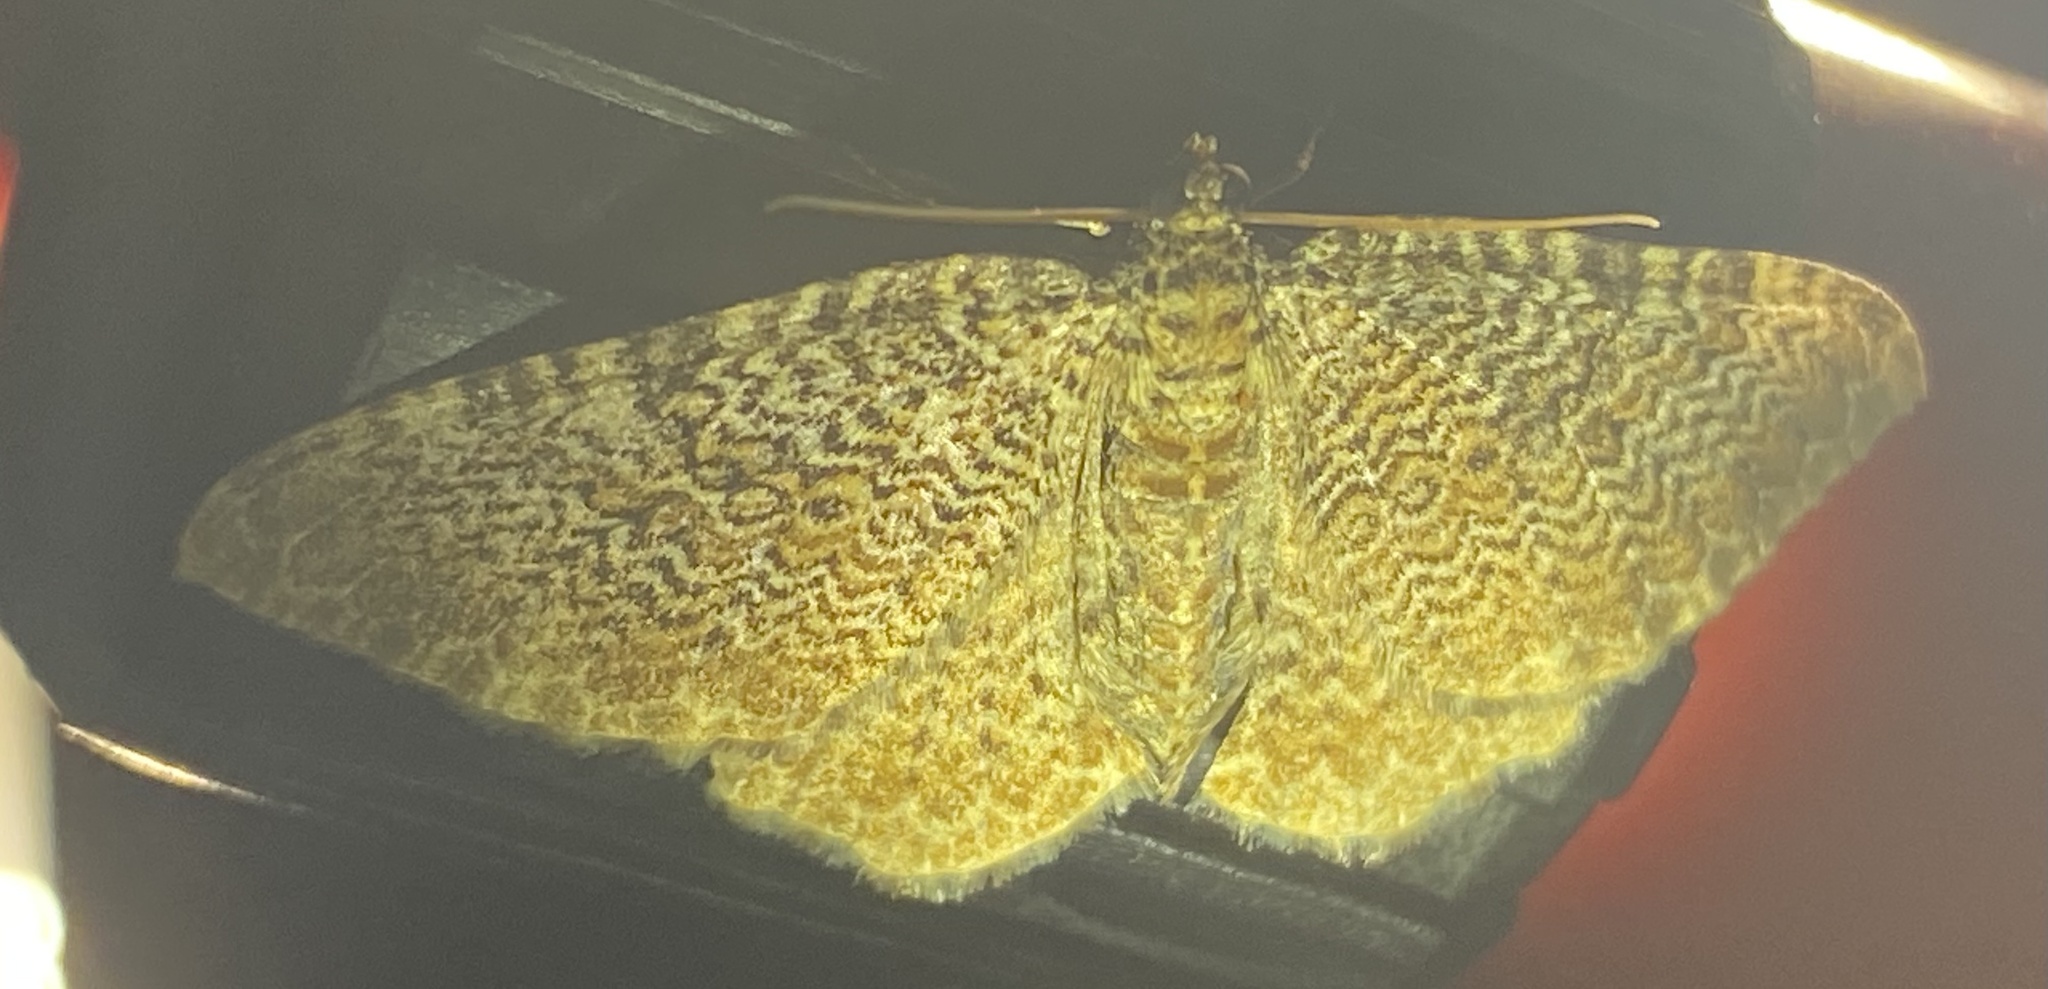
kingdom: Animalia
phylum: Arthropoda
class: Insecta
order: Lepidoptera
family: Geometridae
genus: Rheumaptera
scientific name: Rheumaptera prunivorata
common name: Cherry scallop shell moth
